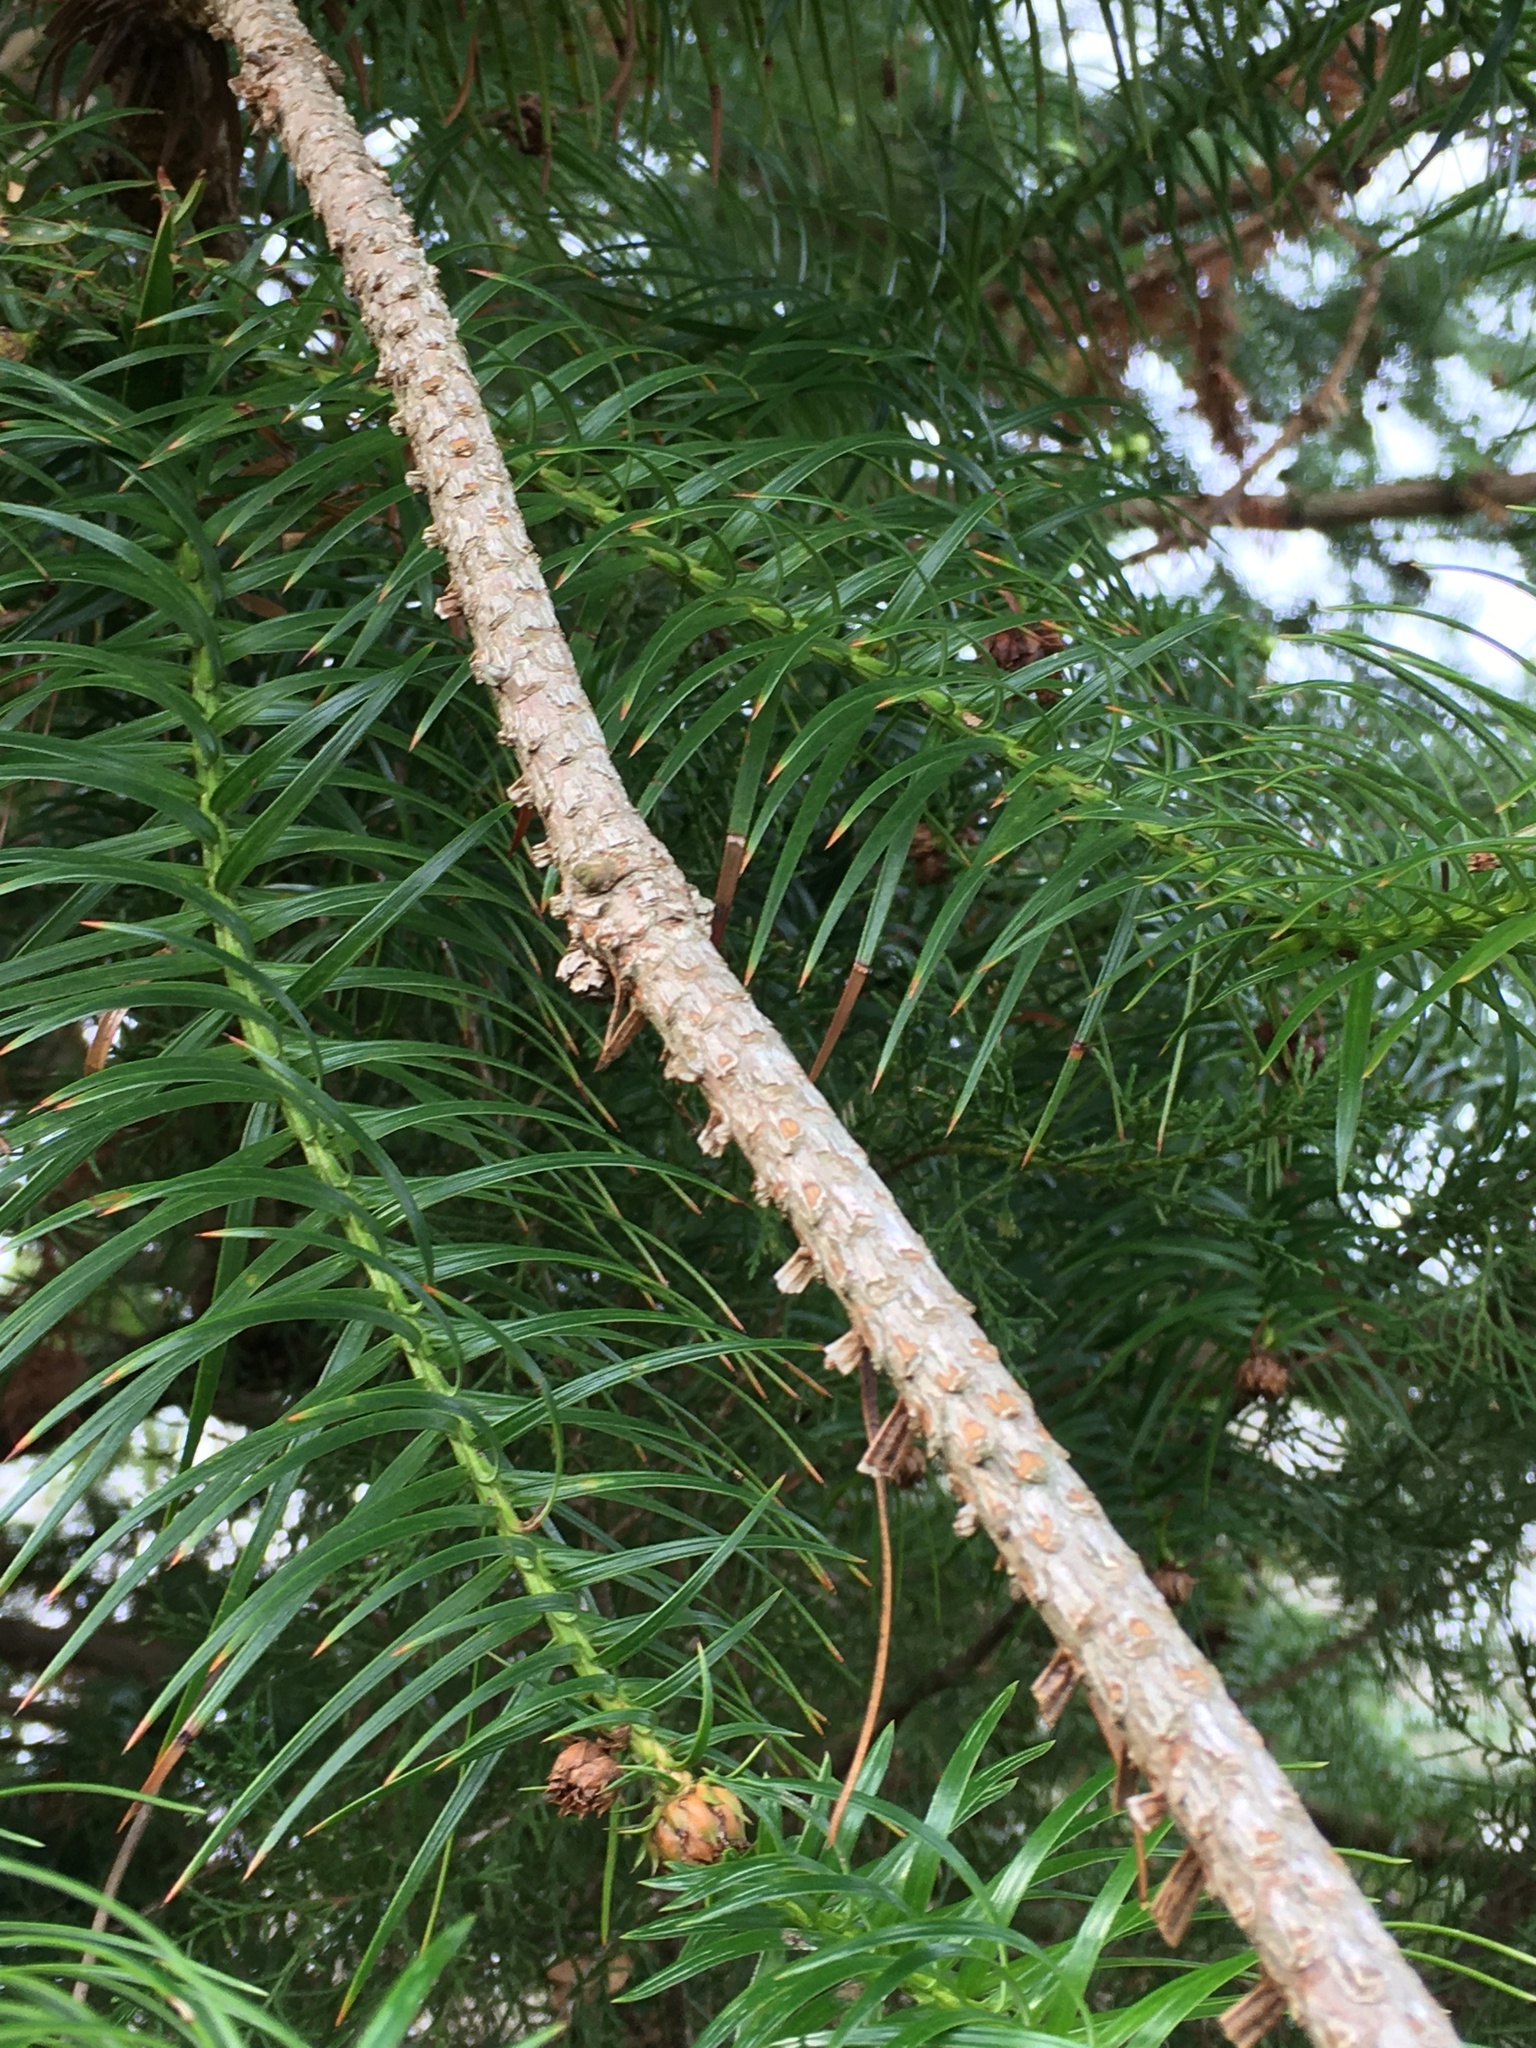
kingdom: Plantae
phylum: Tracheophyta
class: Pinopsida
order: Pinales
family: Cupressaceae
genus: Cunninghamia
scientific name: Cunninghamia lanceolata
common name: Chinese fir
